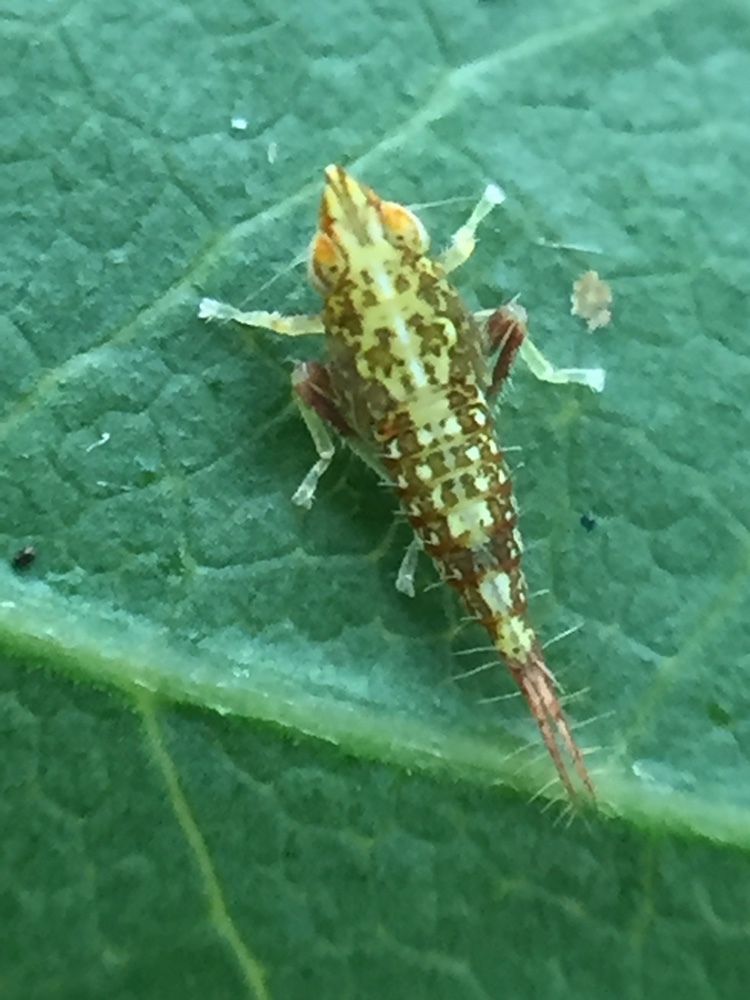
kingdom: Animalia
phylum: Arthropoda
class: Insecta
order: Hemiptera
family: Cicadellidae
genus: Japananus
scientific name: Japananus hyalinus
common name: The japanese maple leafhopper
